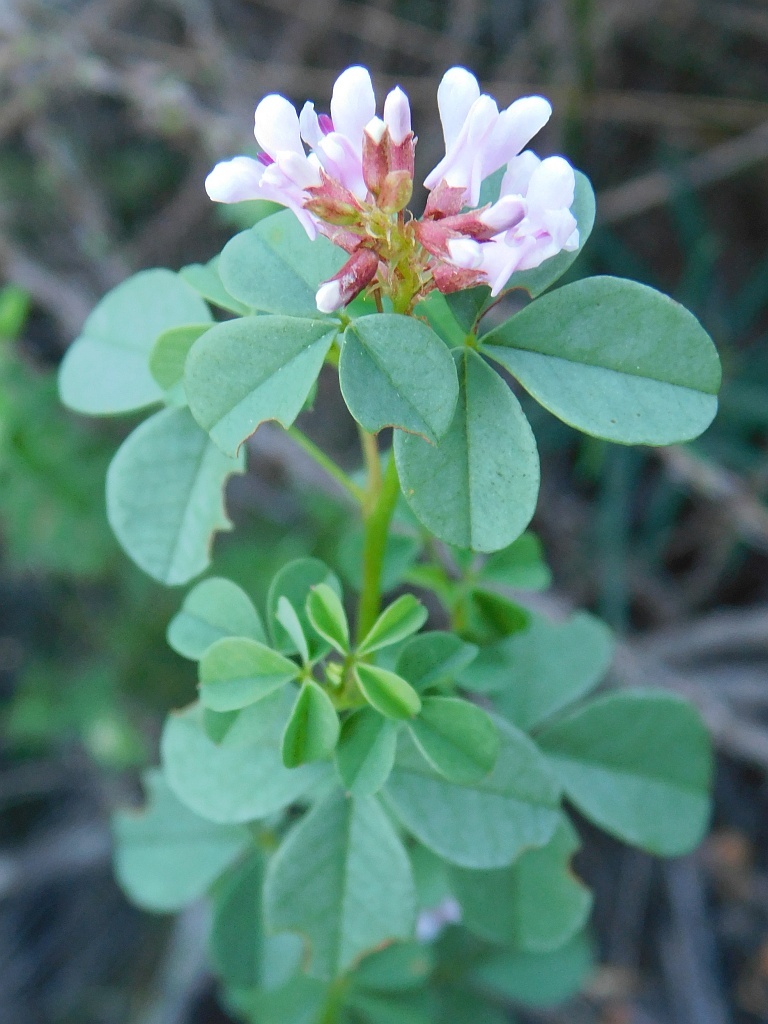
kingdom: Plantae
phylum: Tracheophyta
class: Magnoliopsida
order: Fabales
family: Fabaceae
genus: Hypocalyptus
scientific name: Hypocalyptus oxalidifolius
